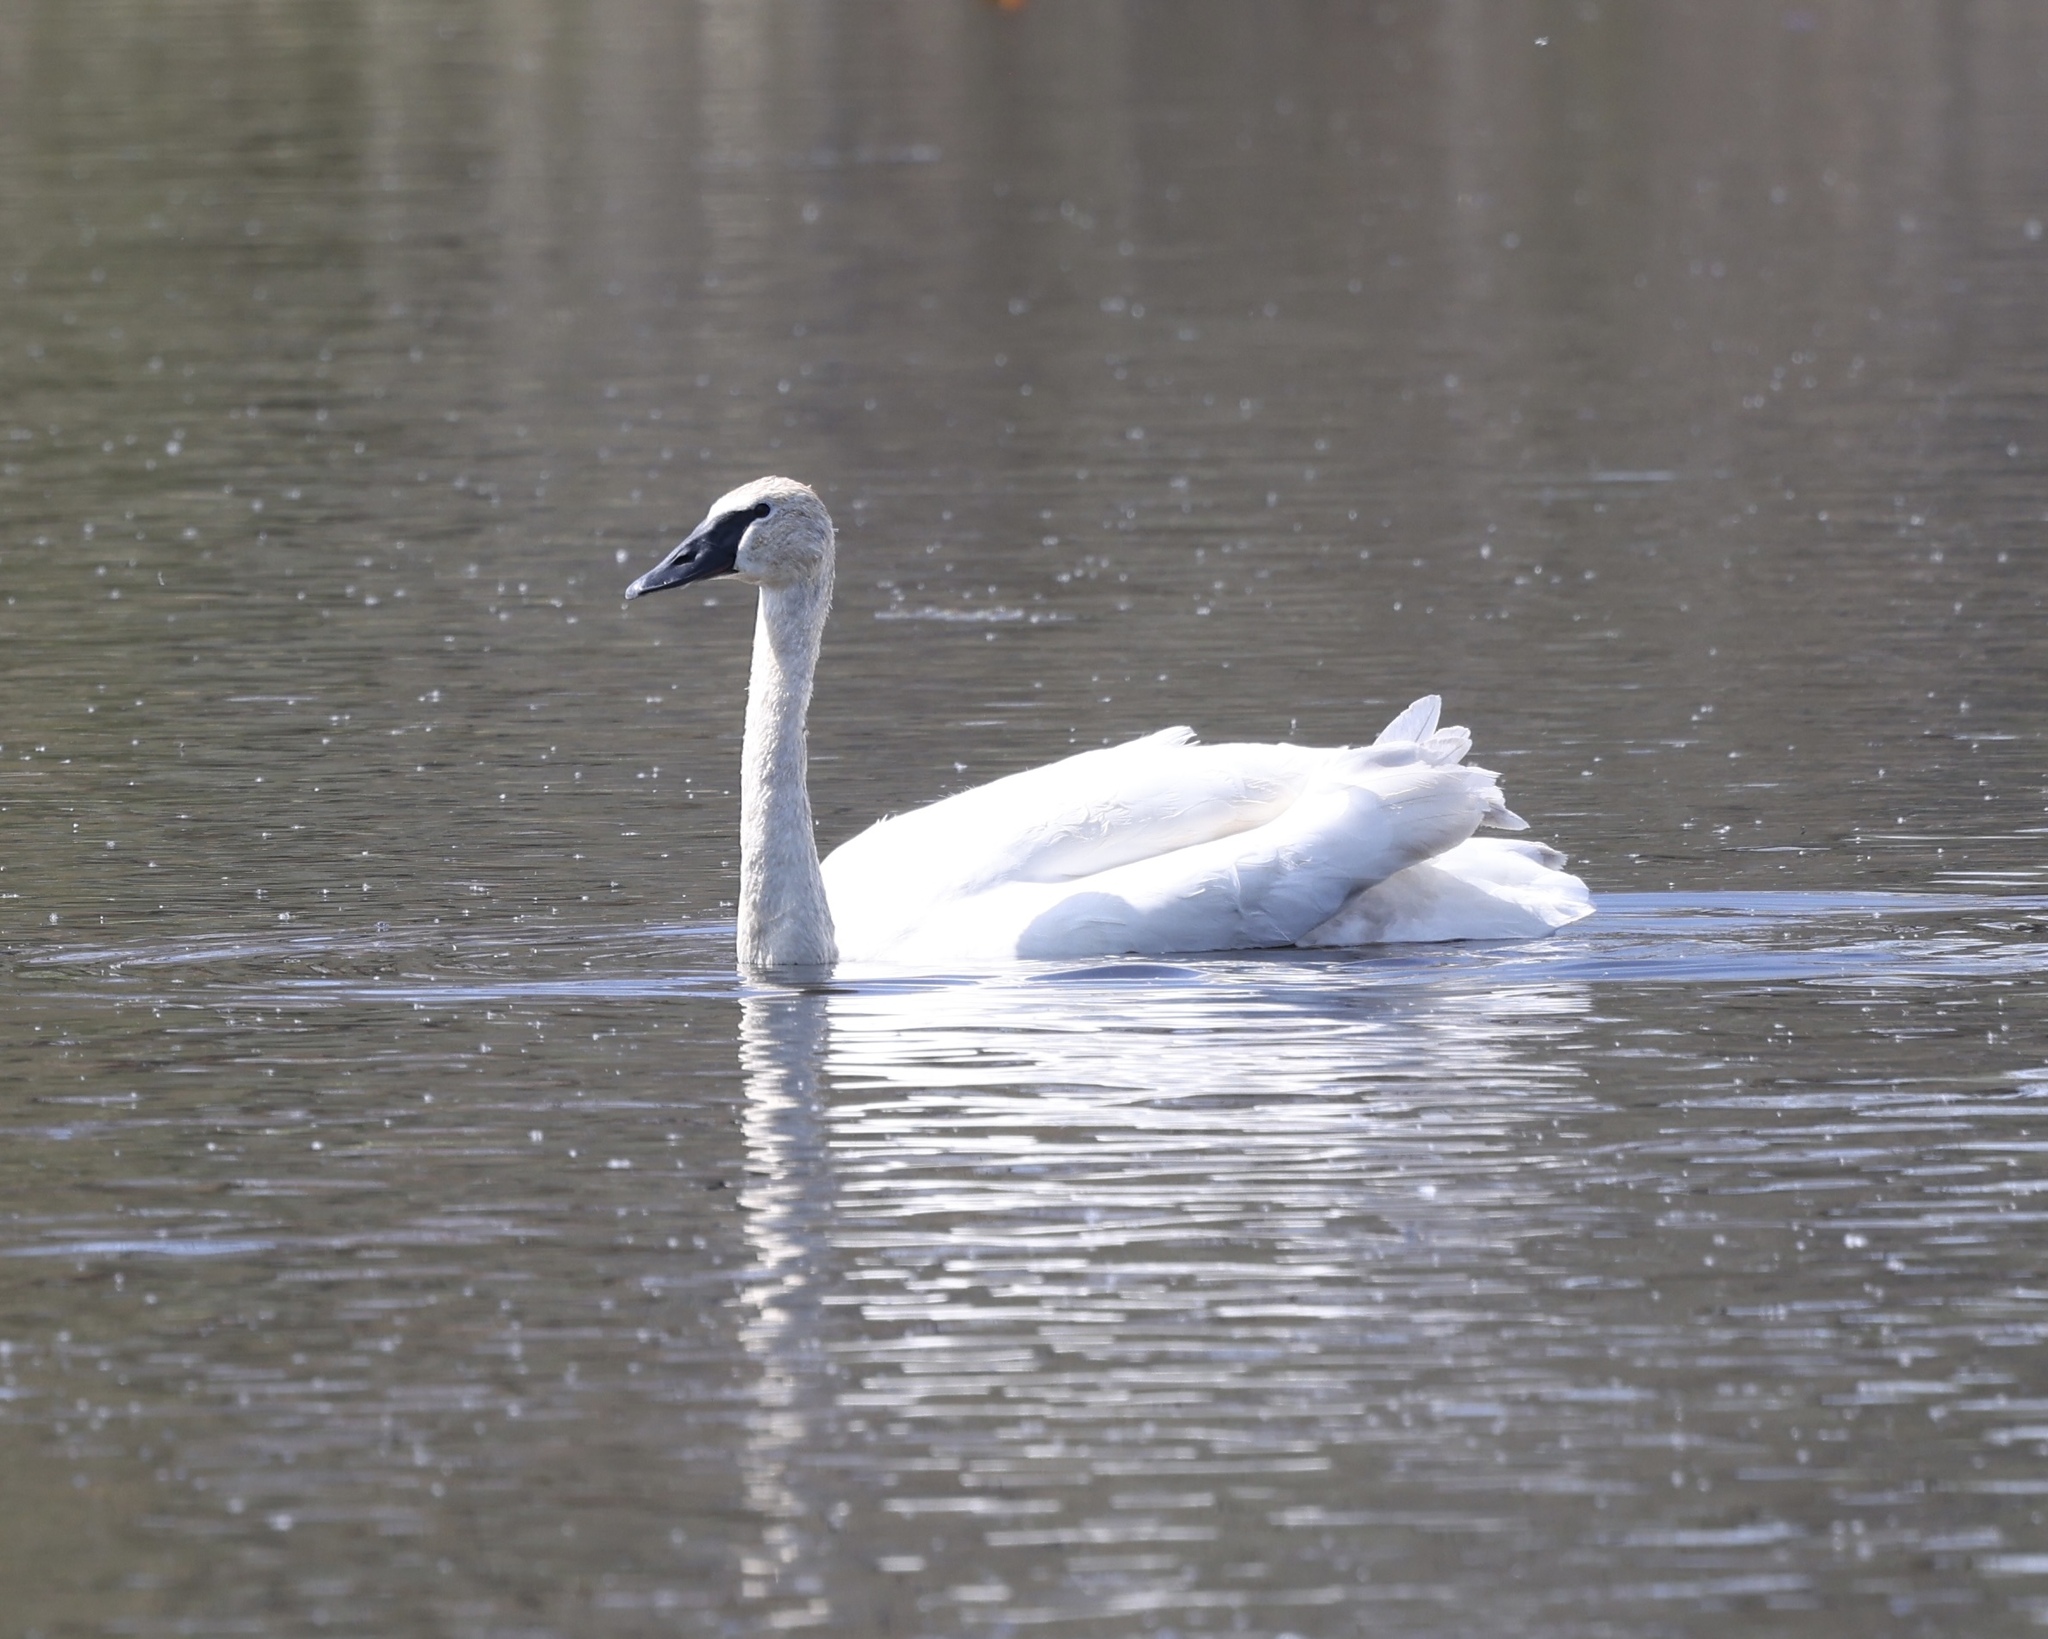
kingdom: Animalia
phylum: Chordata
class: Aves
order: Anseriformes
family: Anatidae
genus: Cygnus
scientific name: Cygnus buccinator
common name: Trumpeter swan
